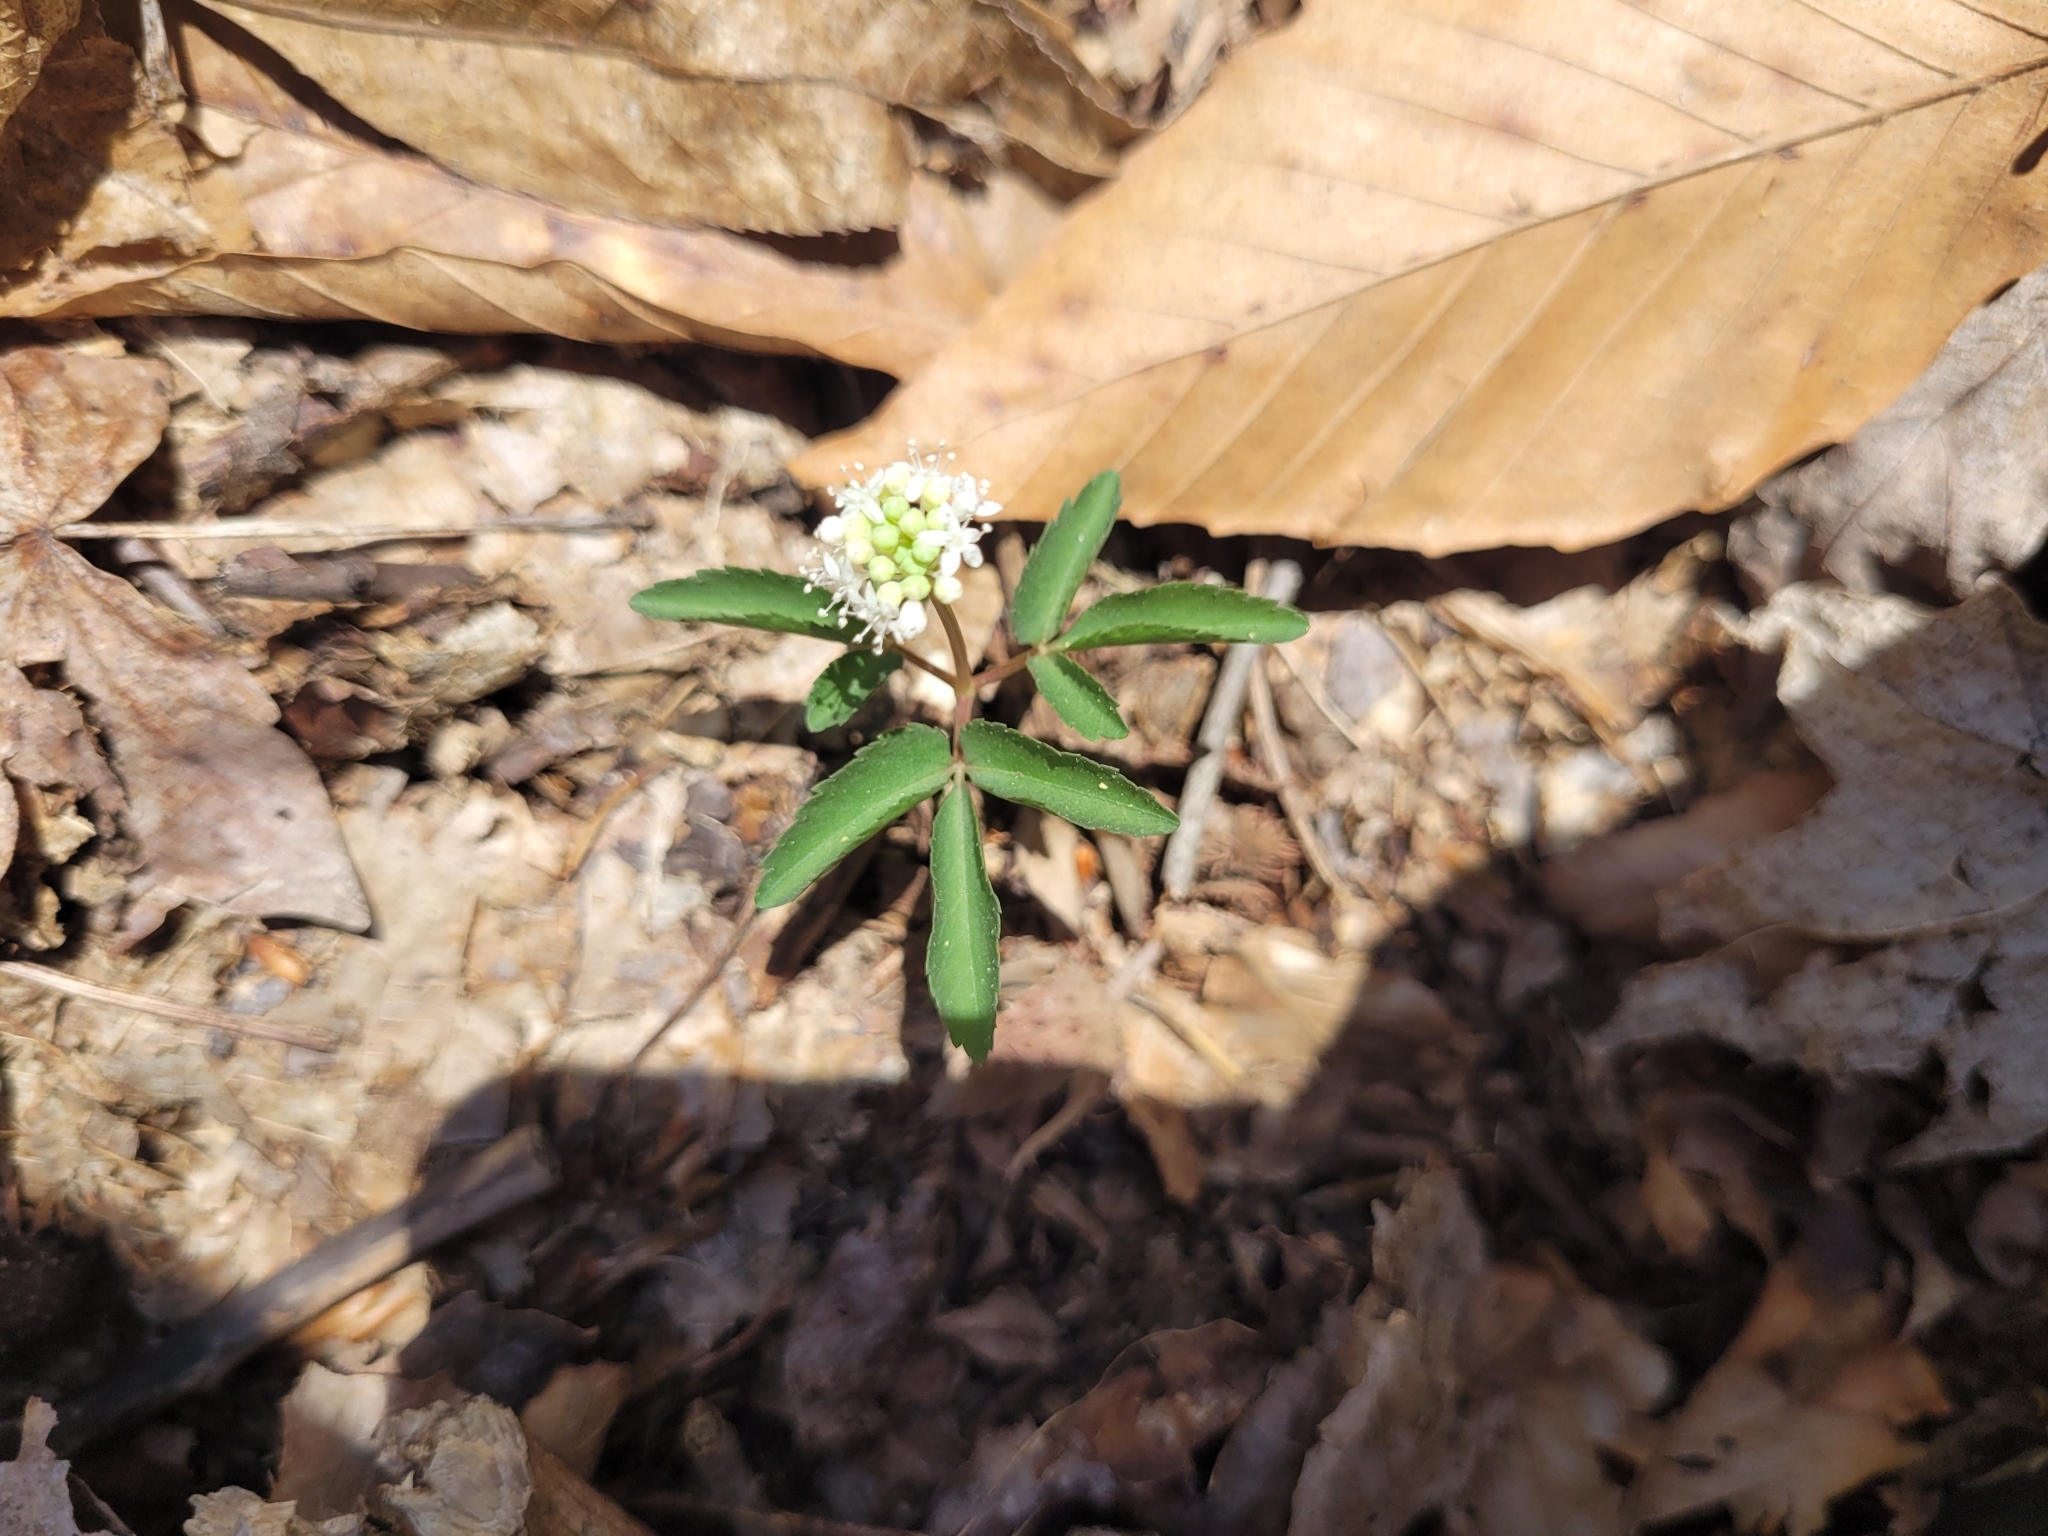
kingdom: Plantae
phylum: Tracheophyta
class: Magnoliopsida
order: Apiales
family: Araliaceae
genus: Panax
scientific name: Panax trifolius
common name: Dwarf ginseng
